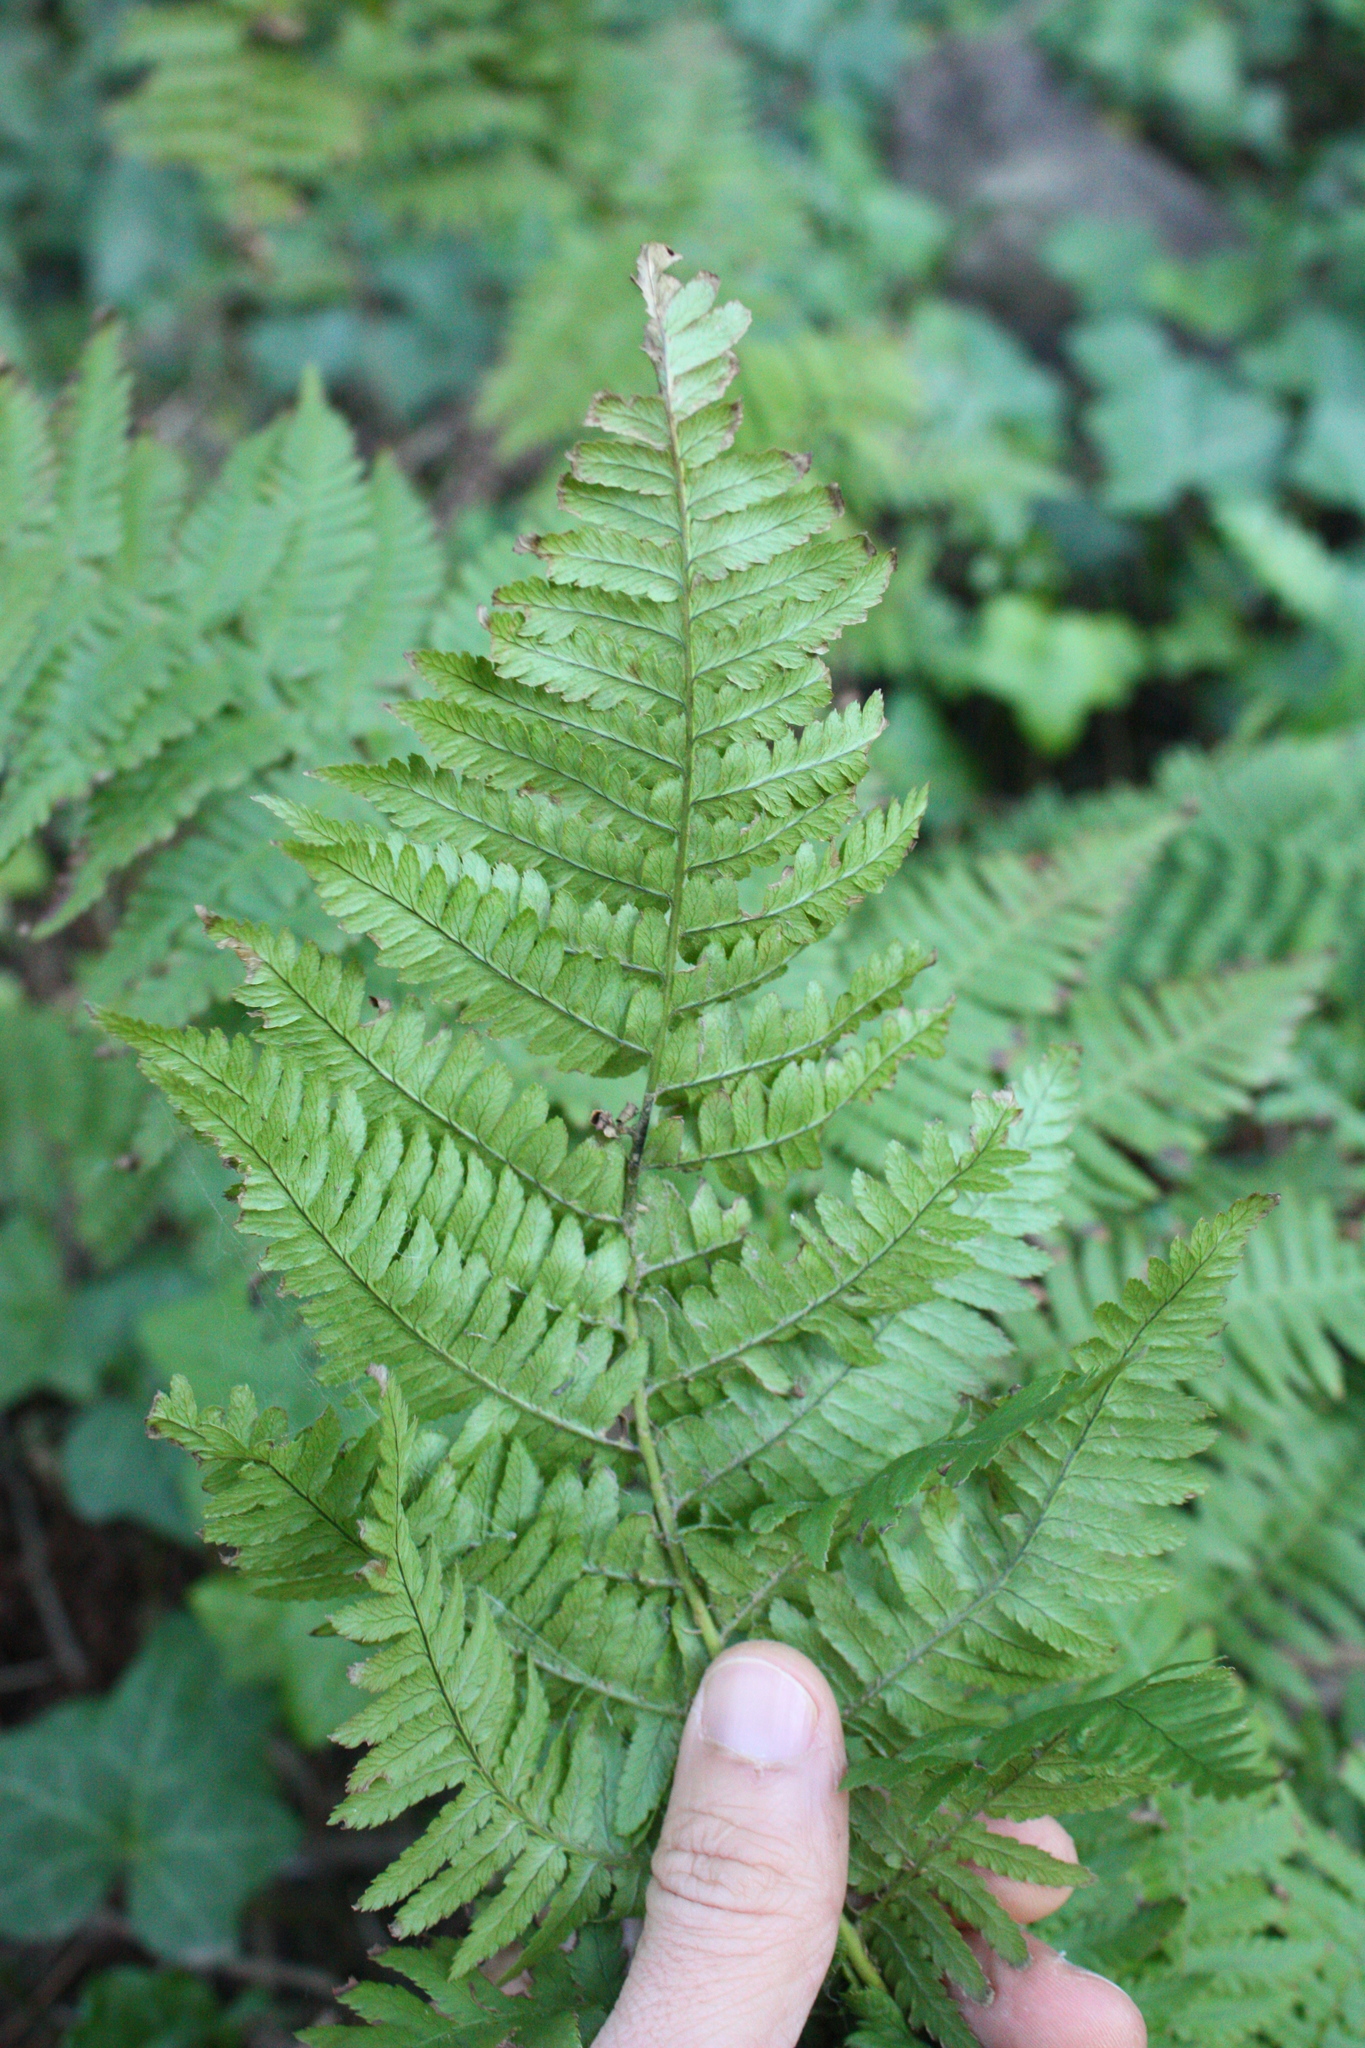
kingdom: Plantae
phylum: Tracheophyta
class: Polypodiopsida
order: Polypodiales
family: Dryopteridaceae
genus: Dryopteris
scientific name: Dryopteris arguta
